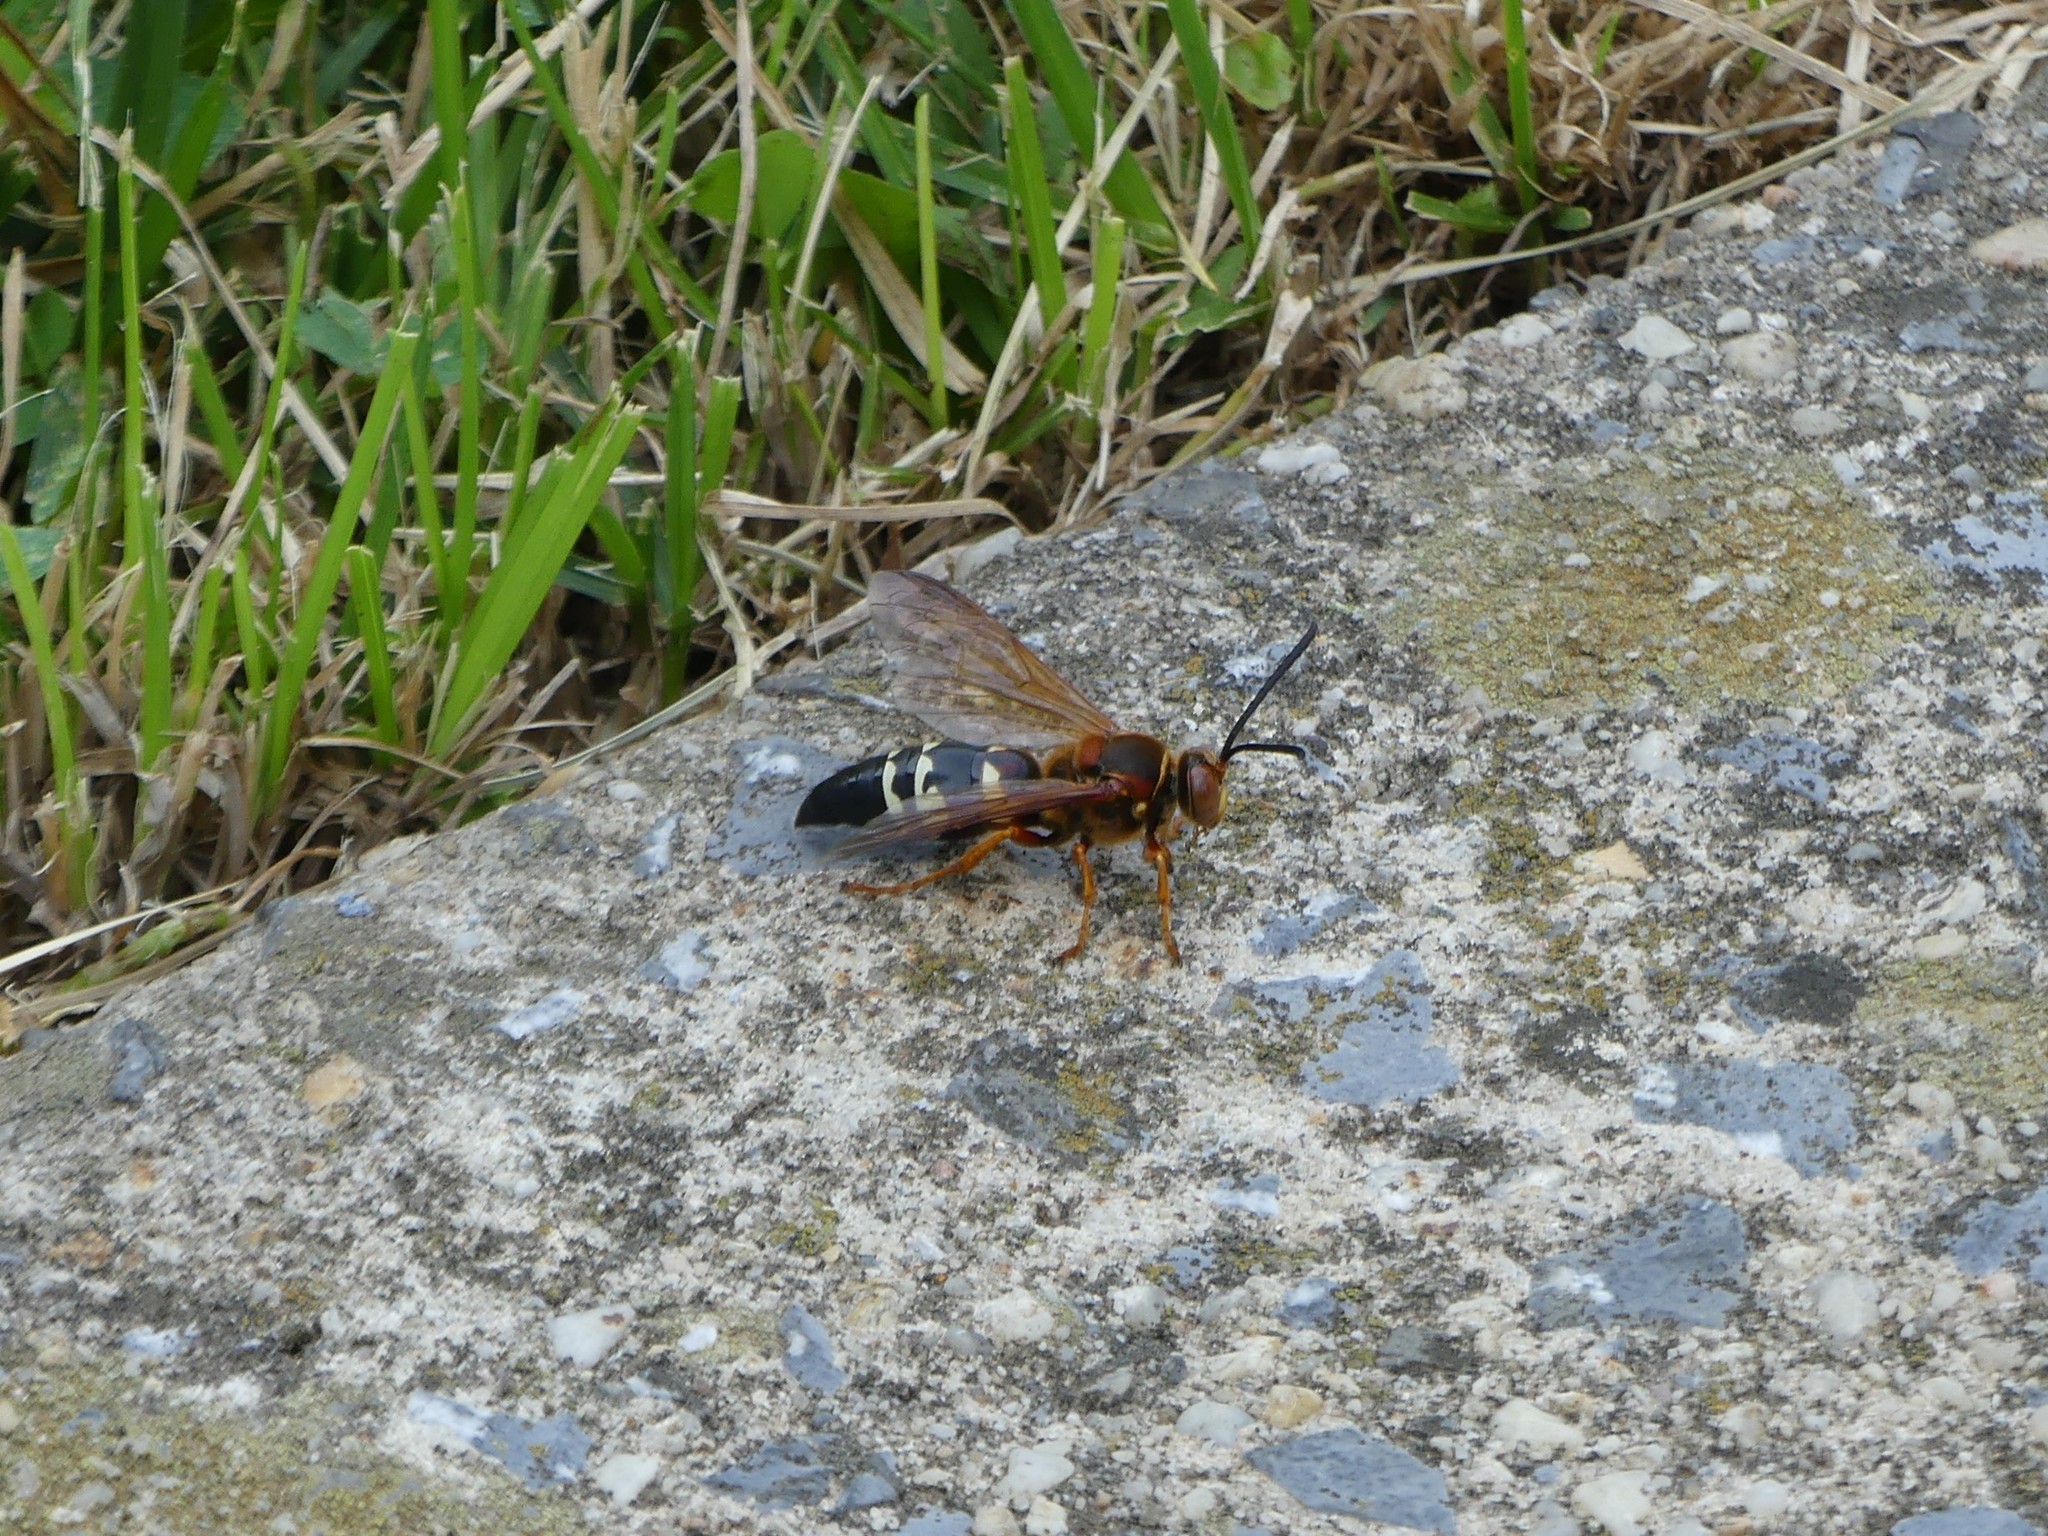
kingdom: Animalia
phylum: Arthropoda
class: Insecta
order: Hymenoptera
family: Crabronidae
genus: Sphecius
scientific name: Sphecius speciosus
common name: Cicada killer
